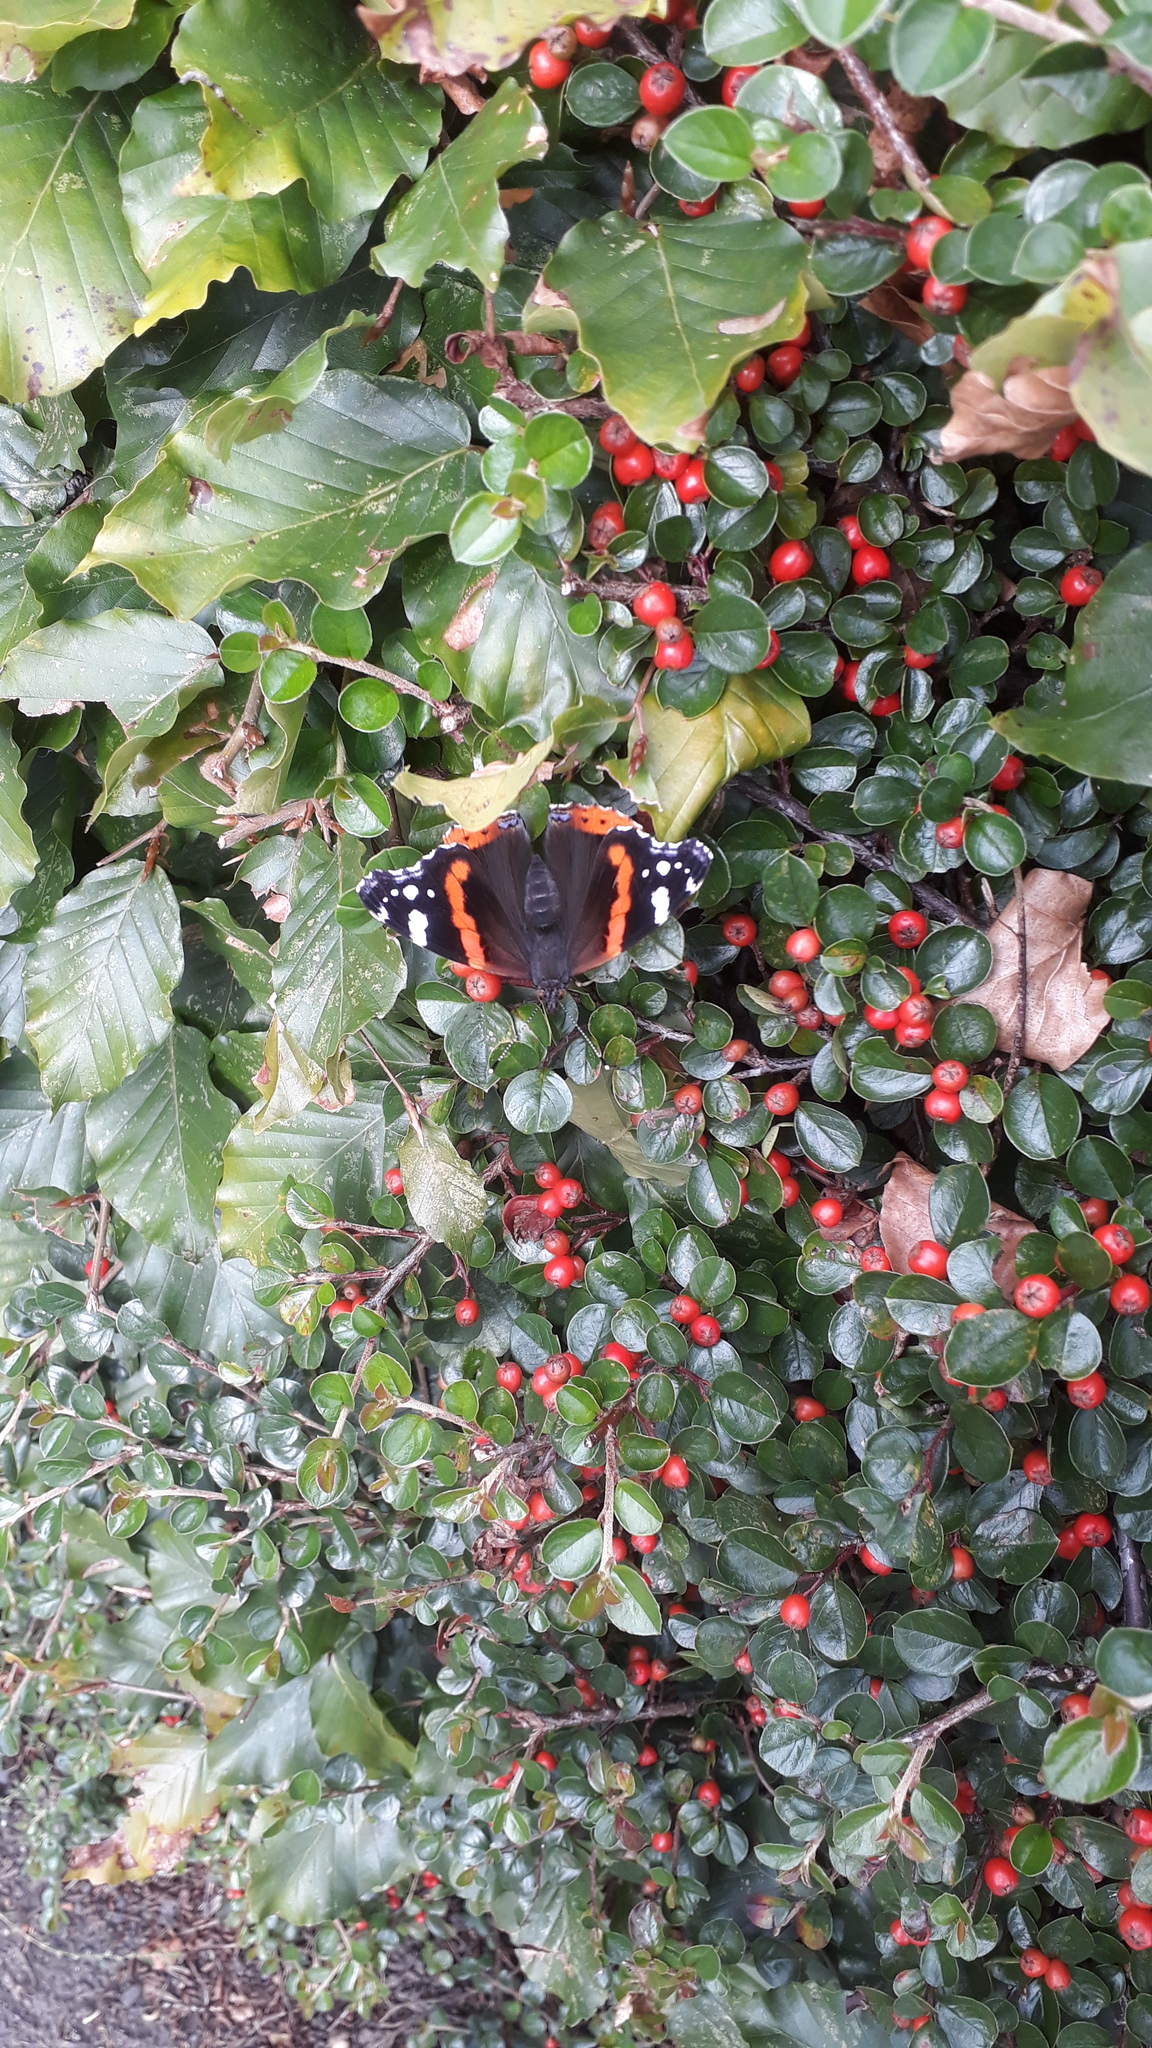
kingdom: Animalia
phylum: Arthropoda
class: Insecta
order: Lepidoptera
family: Nymphalidae
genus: Vanessa
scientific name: Vanessa atalanta
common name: Red admiral
